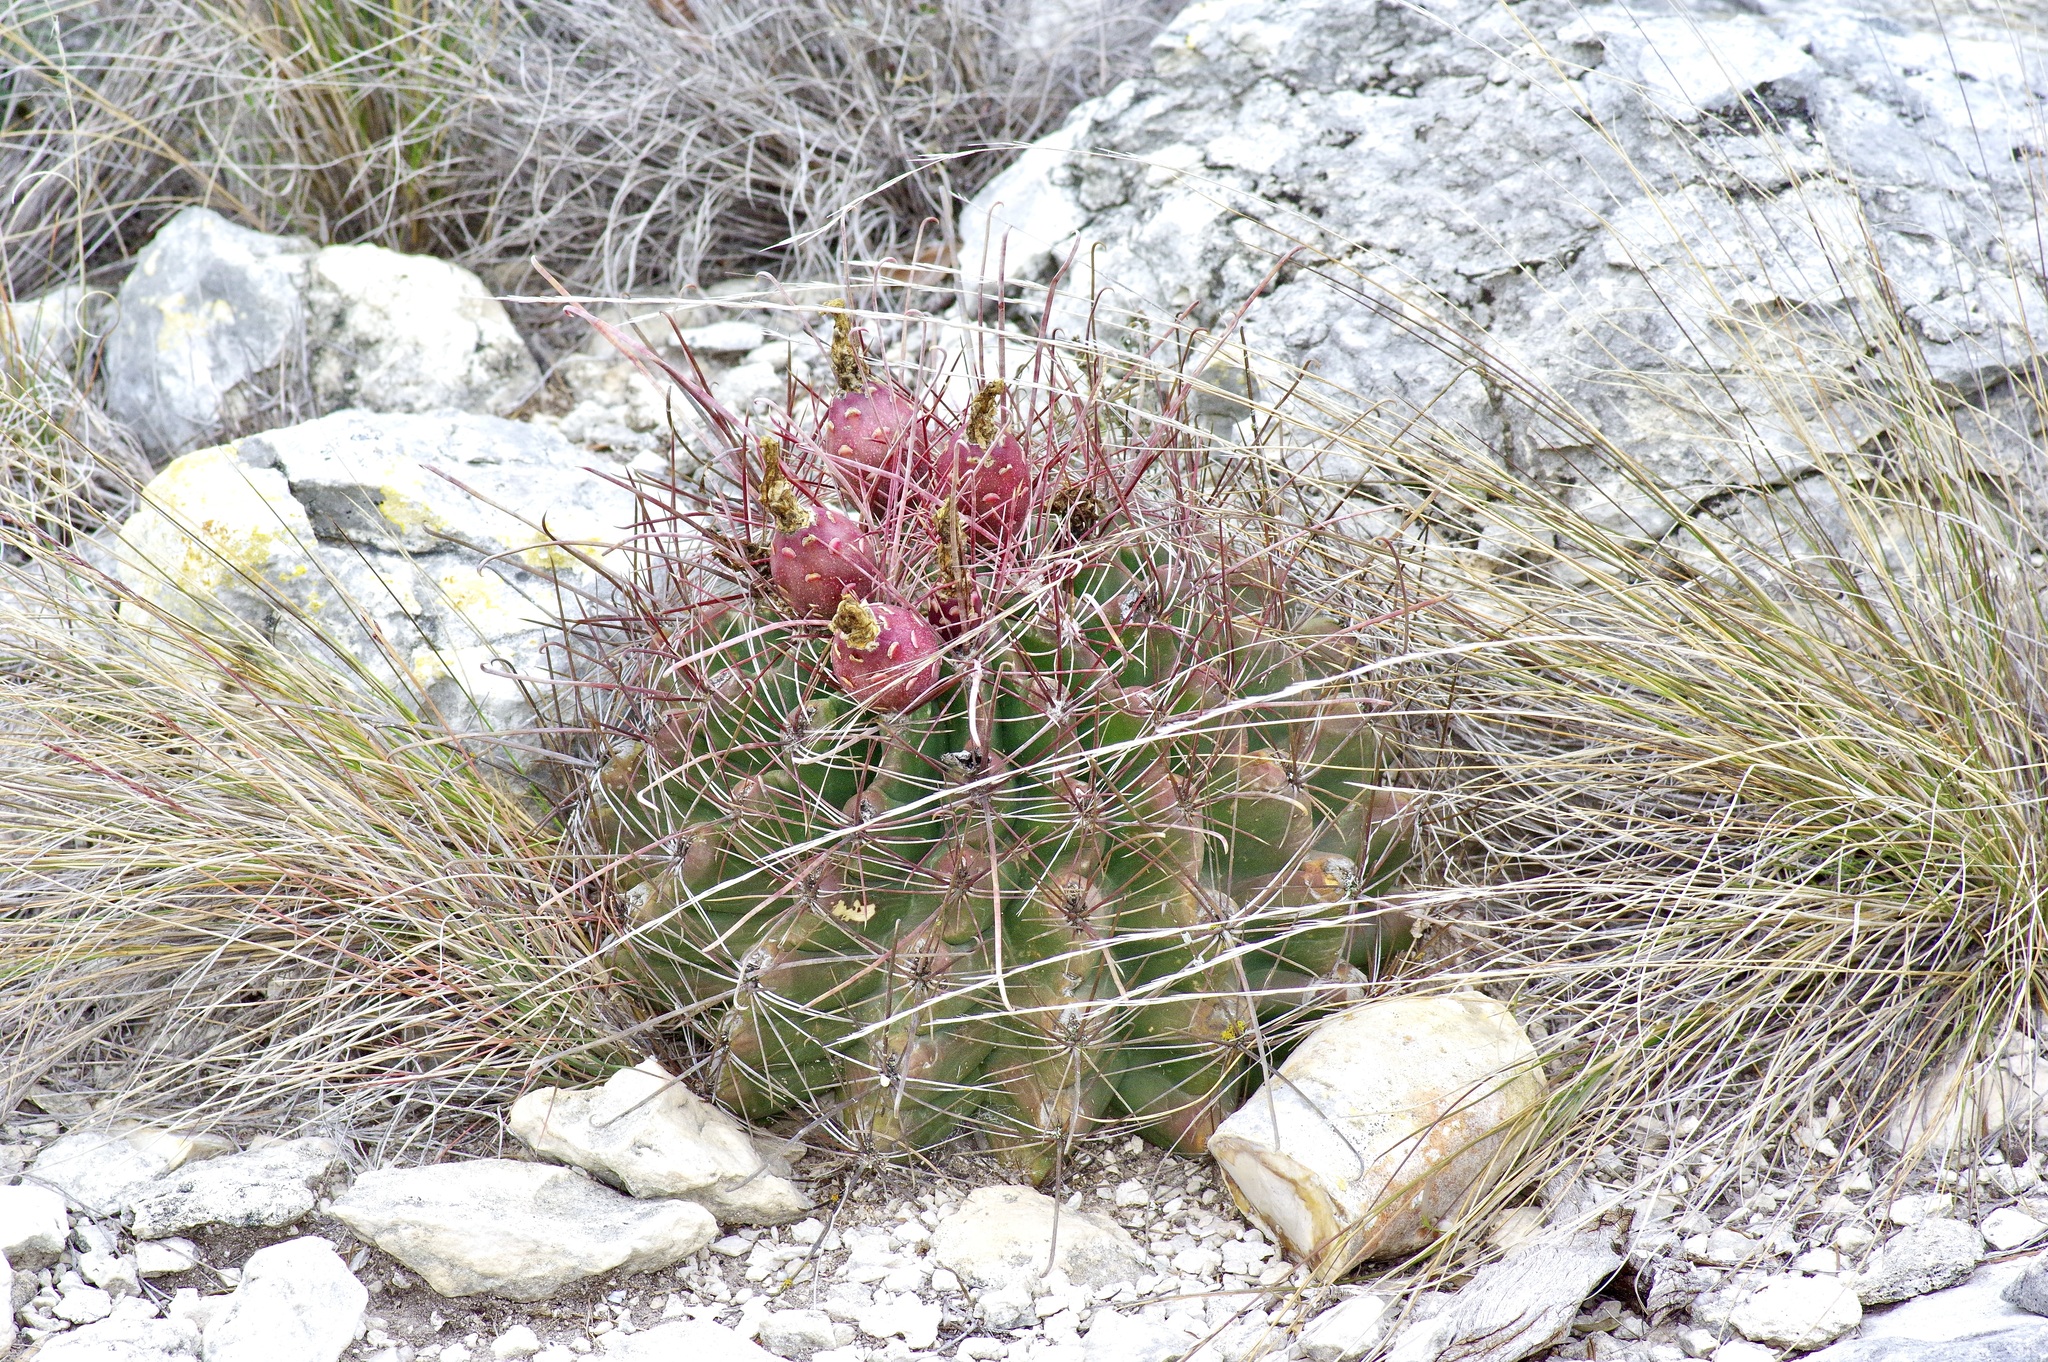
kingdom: Plantae
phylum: Tracheophyta
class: Magnoliopsida
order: Caryophyllales
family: Cactaceae
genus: Bisnaga
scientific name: Bisnaga hamatacantha
